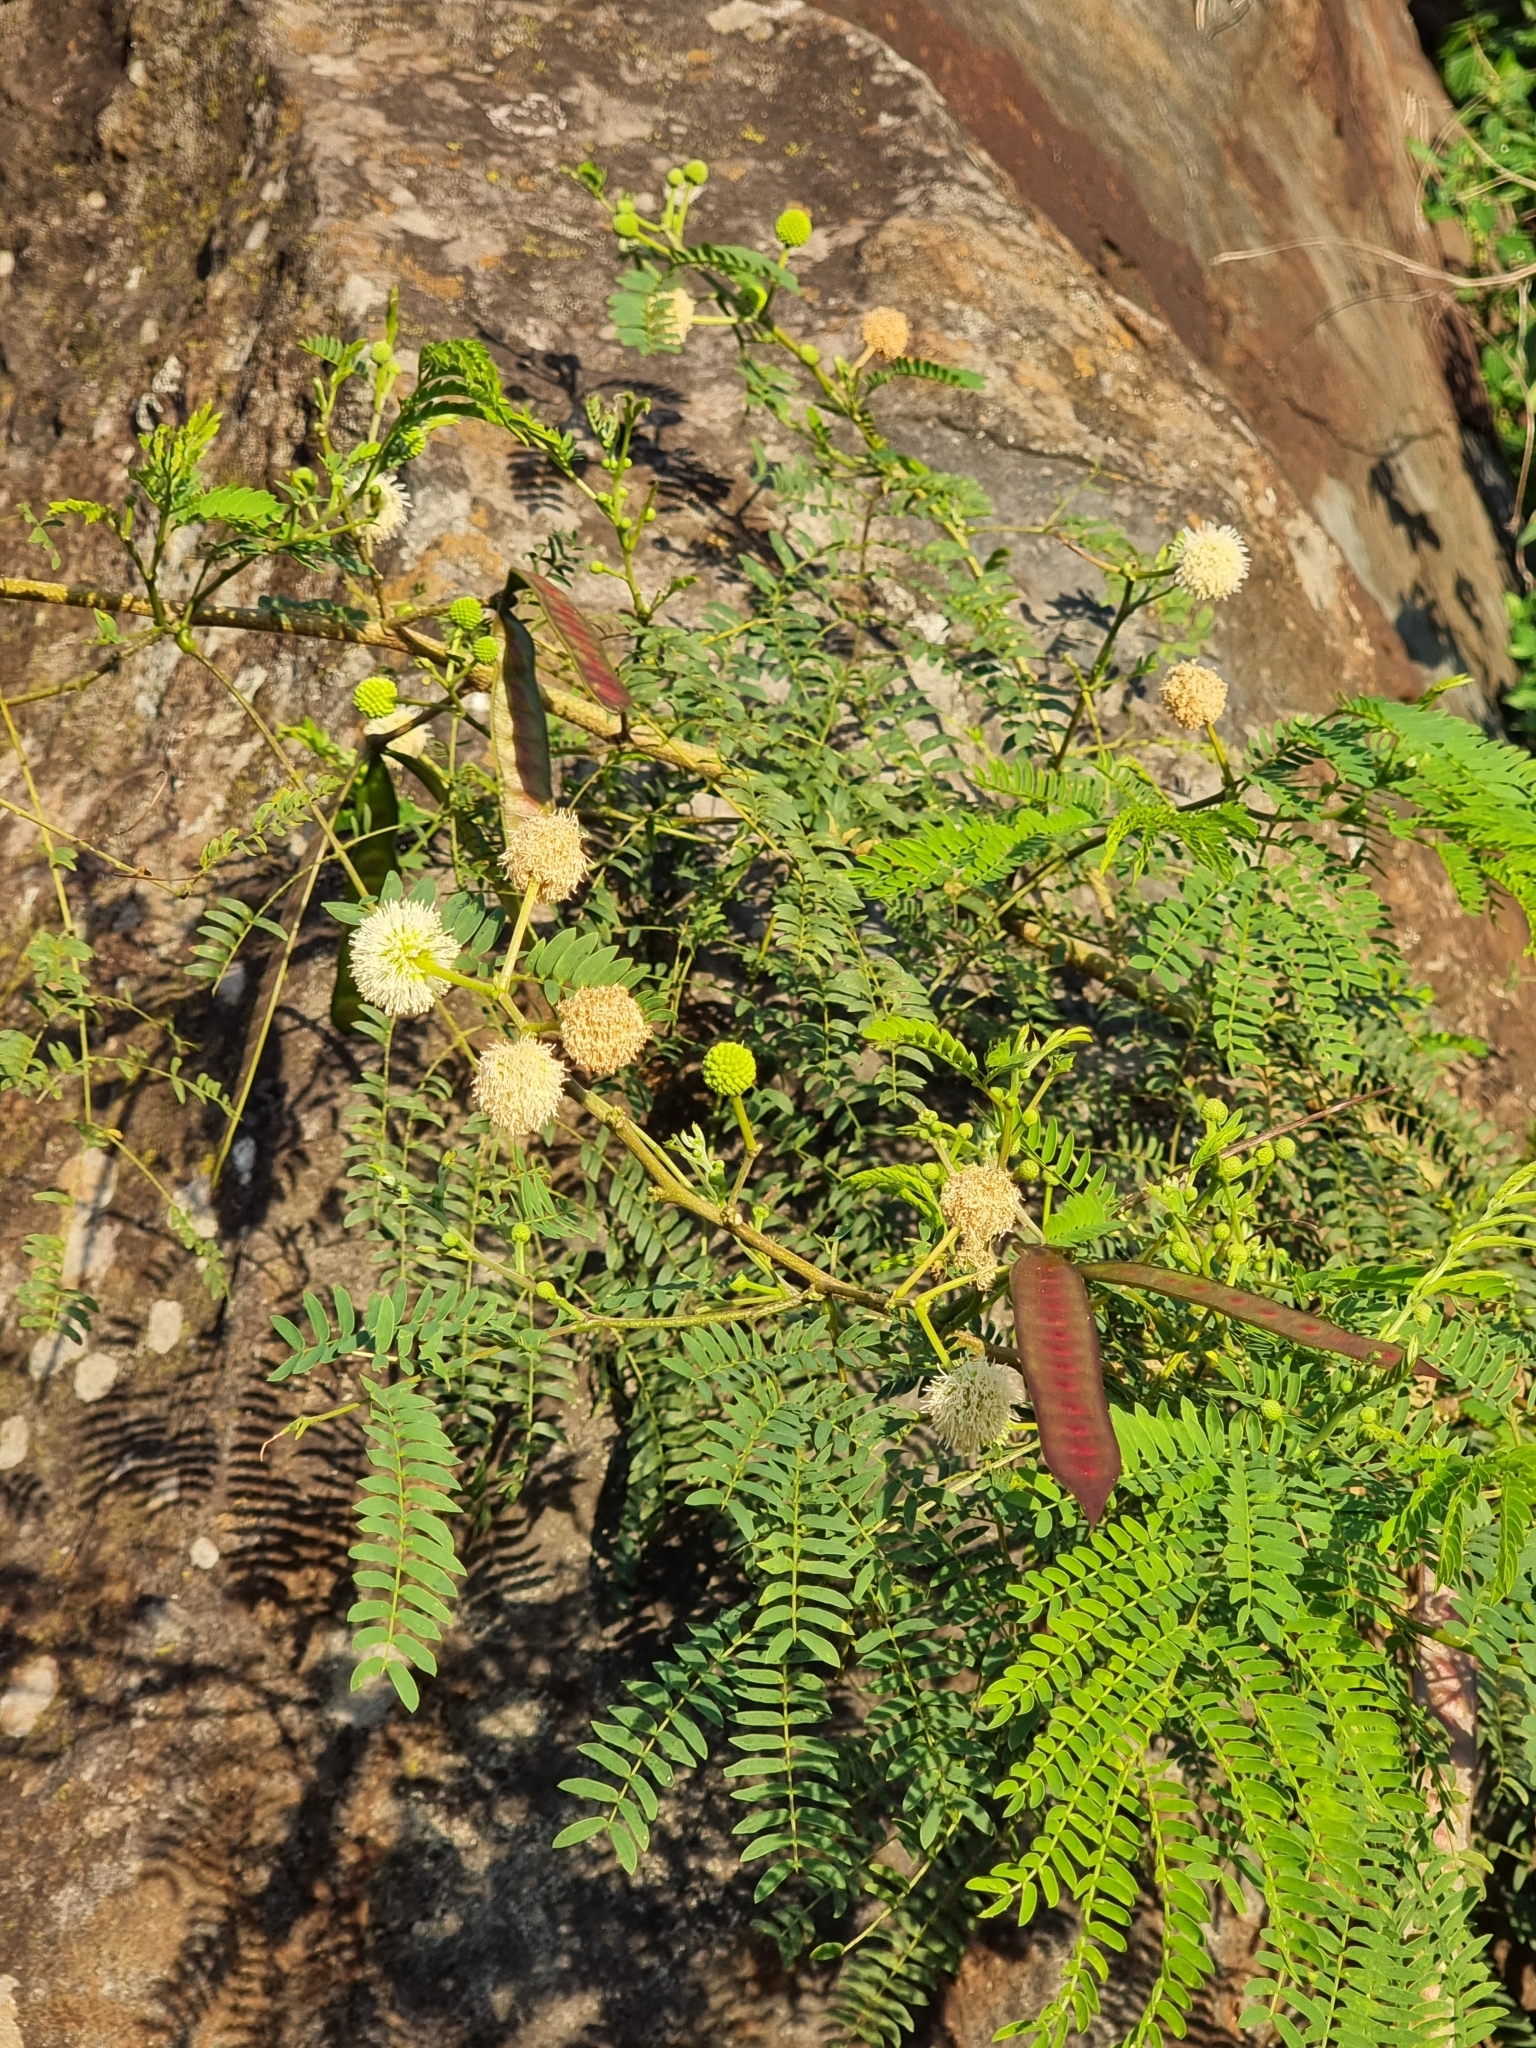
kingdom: Plantae
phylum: Tracheophyta
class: Magnoliopsida
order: Fabales
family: Fabaceae
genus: Leucaena
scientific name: Leucaena leucocephala
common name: White leadtree
